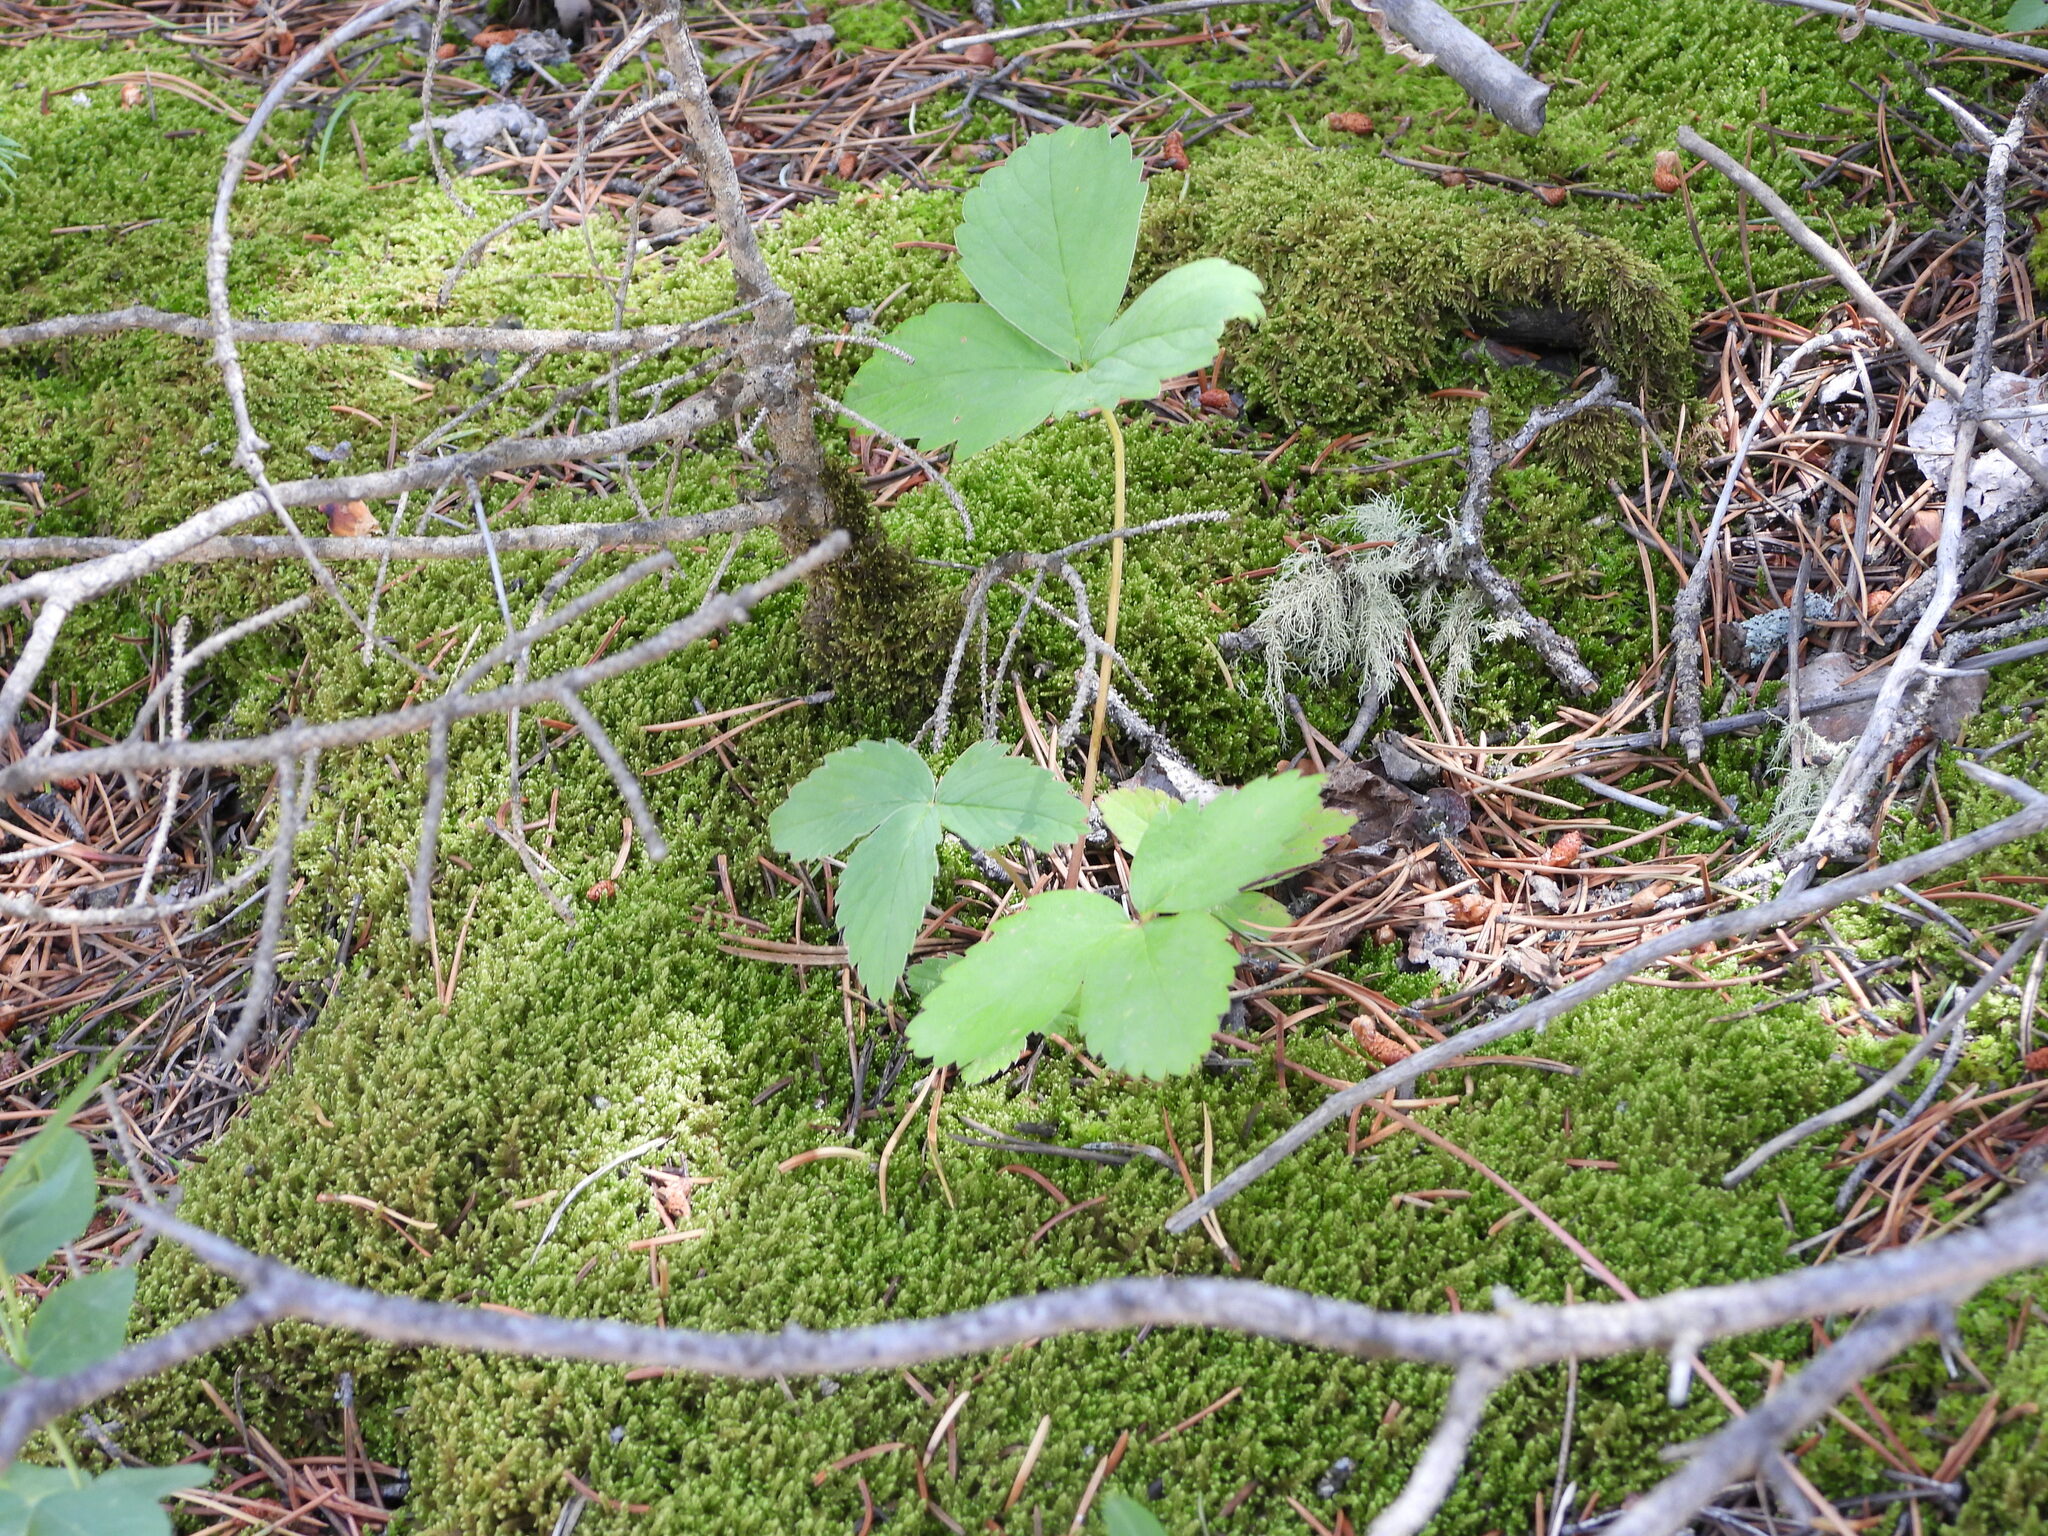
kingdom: Plantae
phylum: Tracheophyta
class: Magnoliopsida
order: Rosales
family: Rosaceae
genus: Fragaria
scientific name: Fragaria virginiana
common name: Thickleaved wild strawberry
